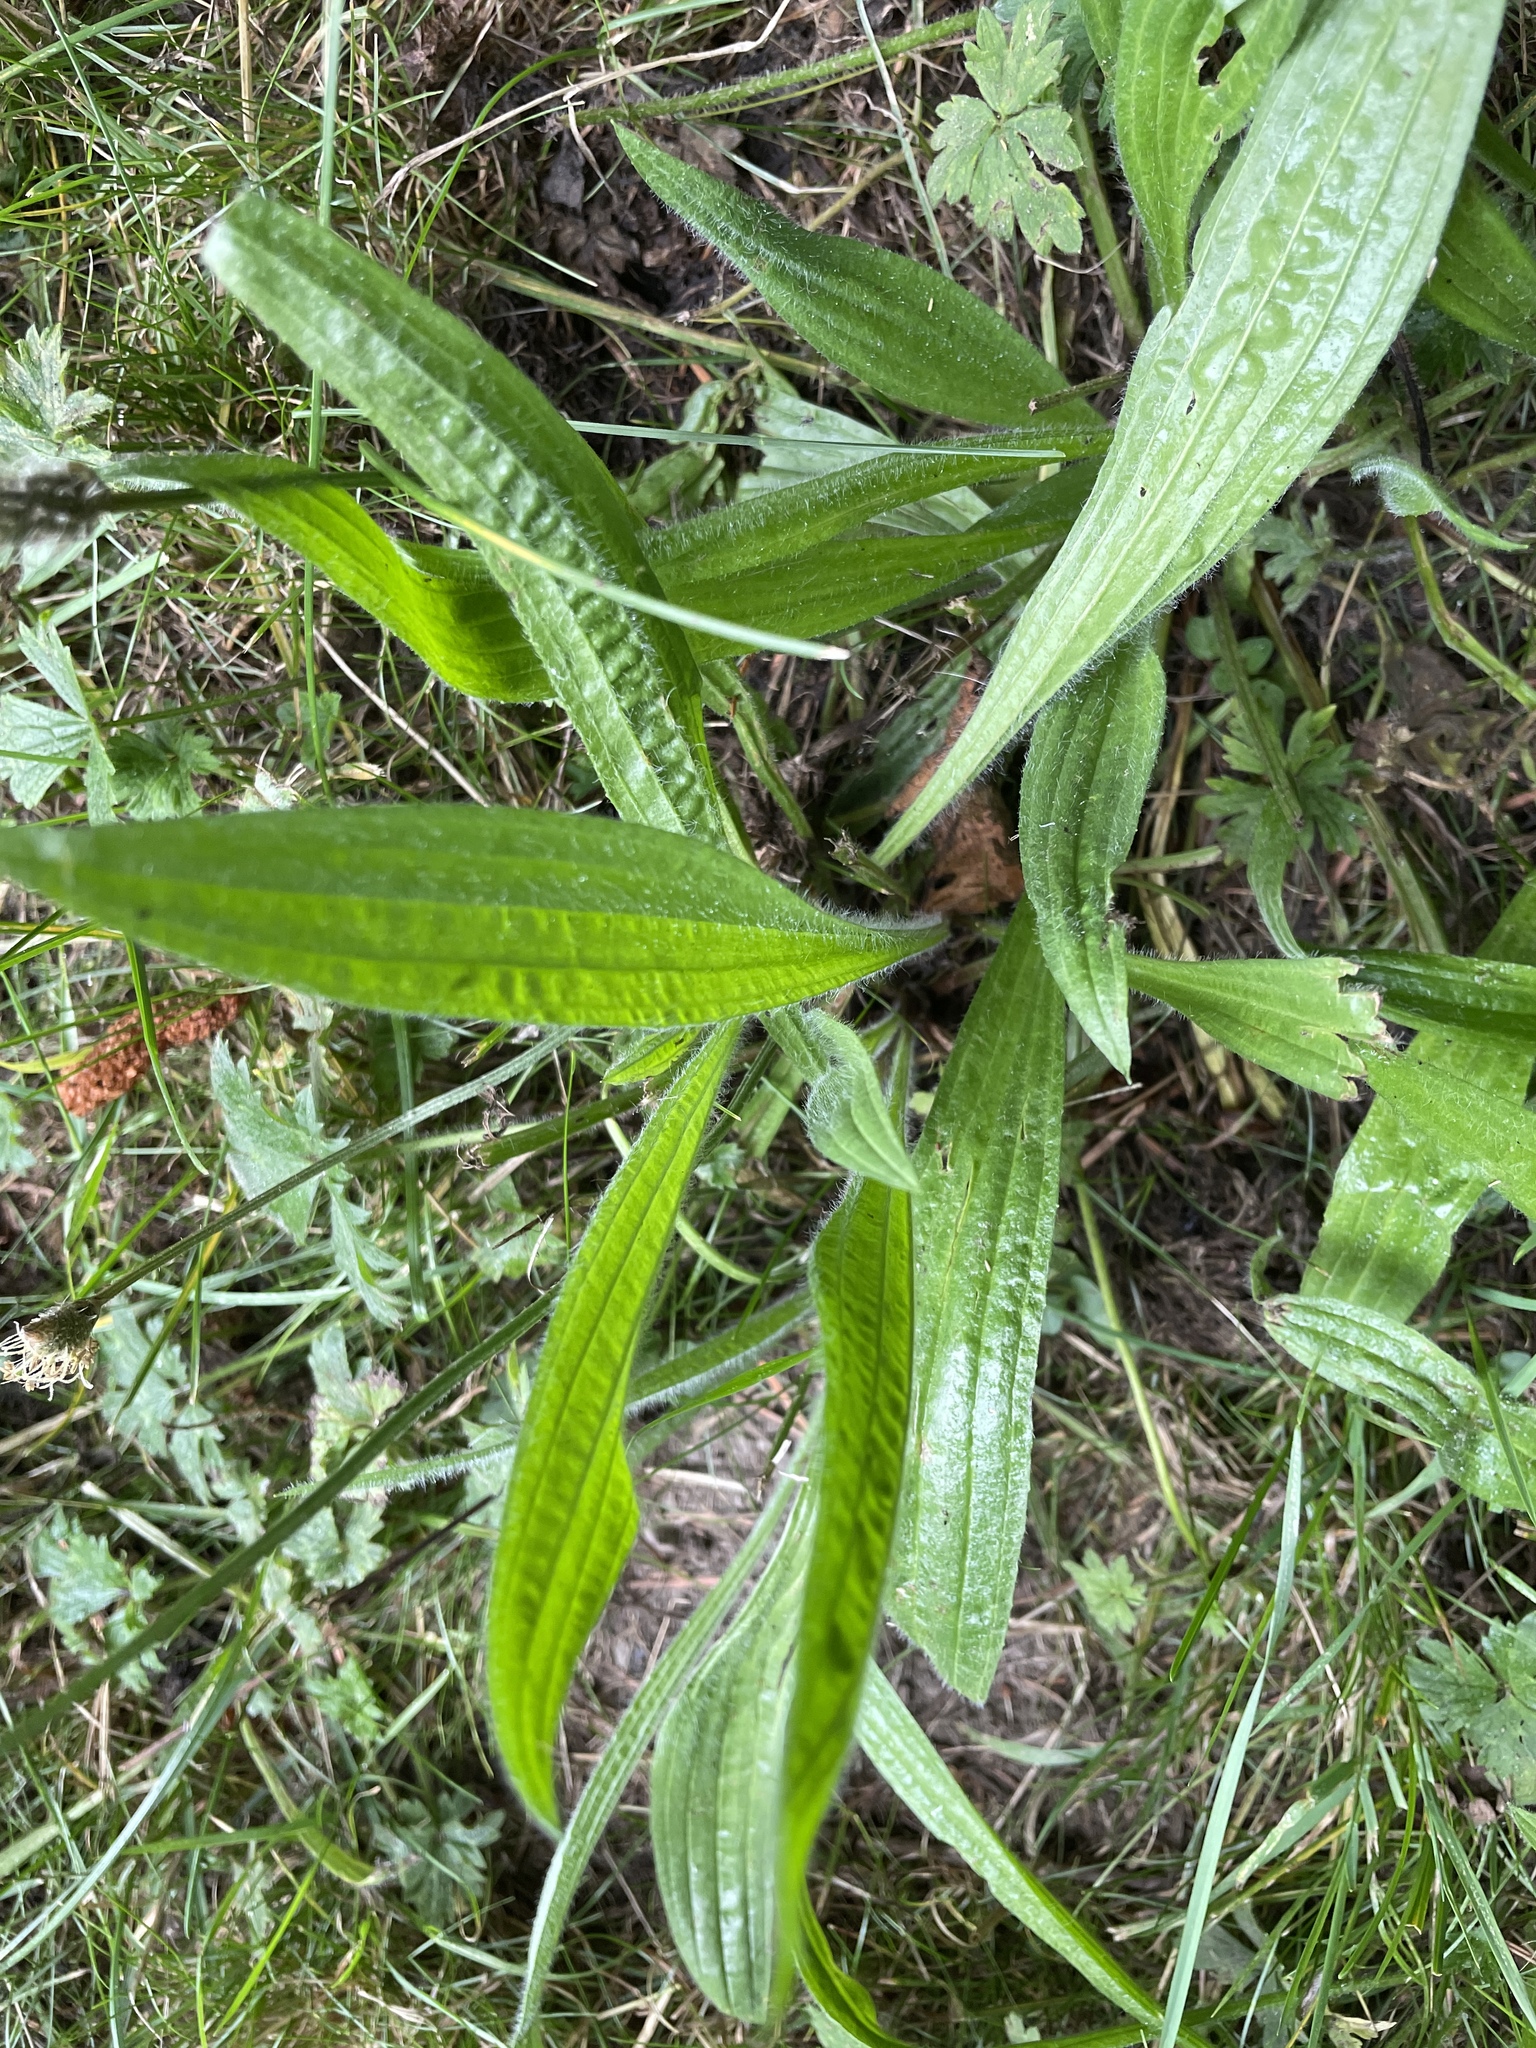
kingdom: Plantae
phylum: Tracheophyta
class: Magnoliopsida
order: Lamiales
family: Plantaginaceae
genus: Plantago
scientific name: Plantago lanceolata
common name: Ribwort plantain
